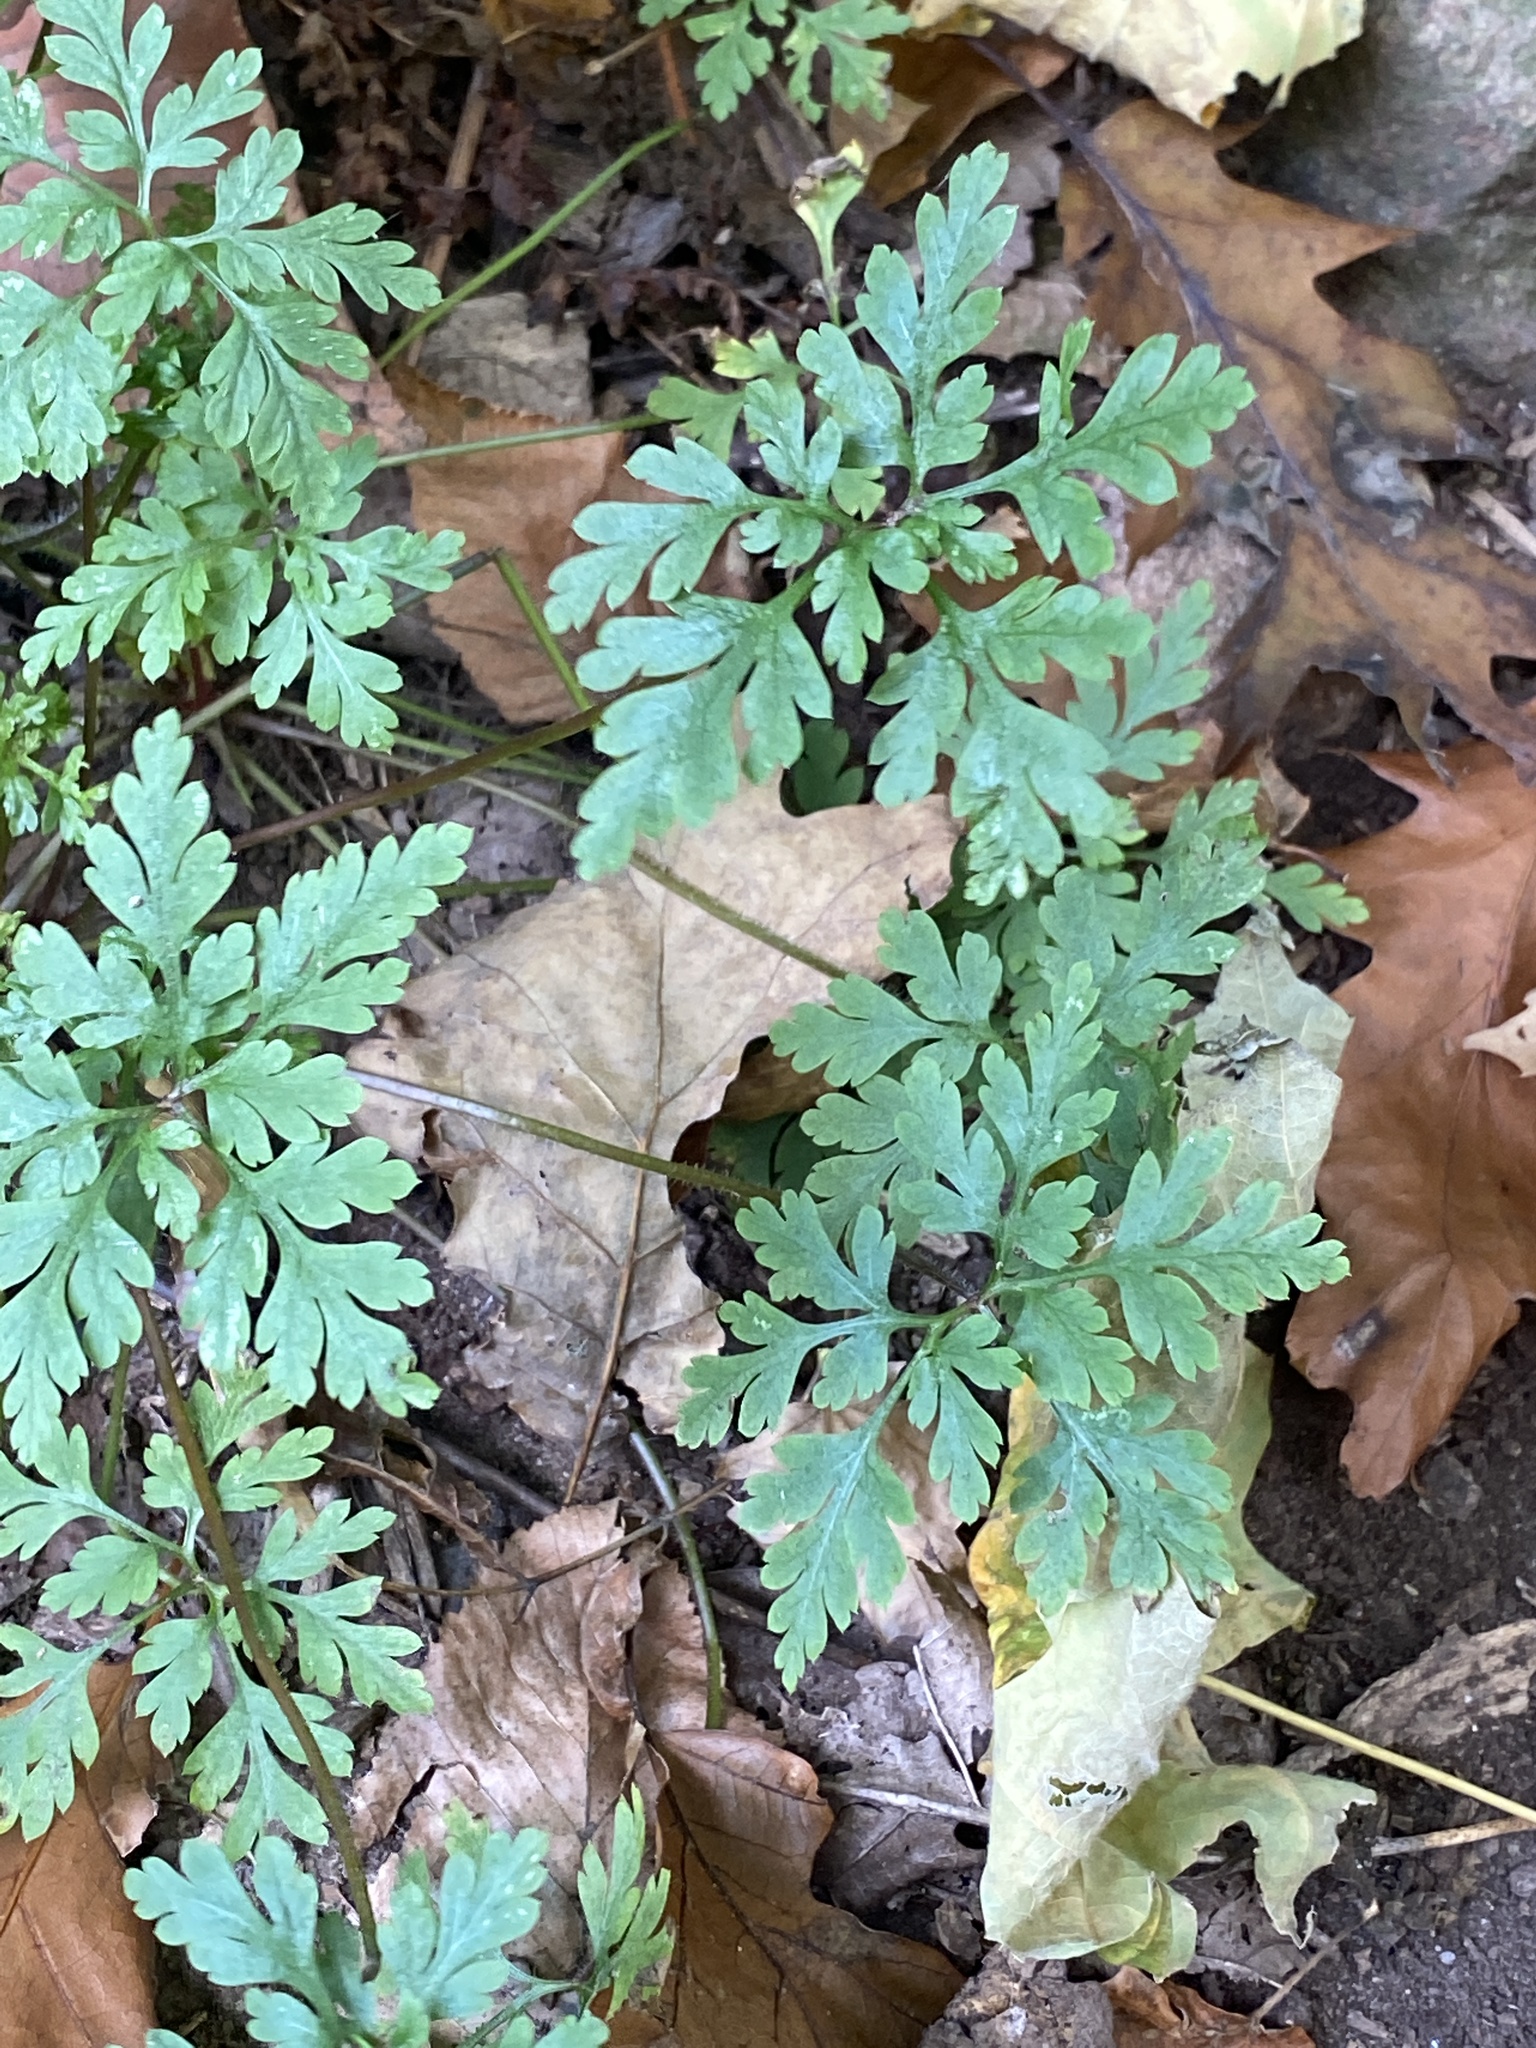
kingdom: Plantae
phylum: Tracheophyta
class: Magnoliopsida
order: Geraniales
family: Geraniaceae
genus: Geranium
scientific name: Geranium robertianum
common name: Herb-robert
